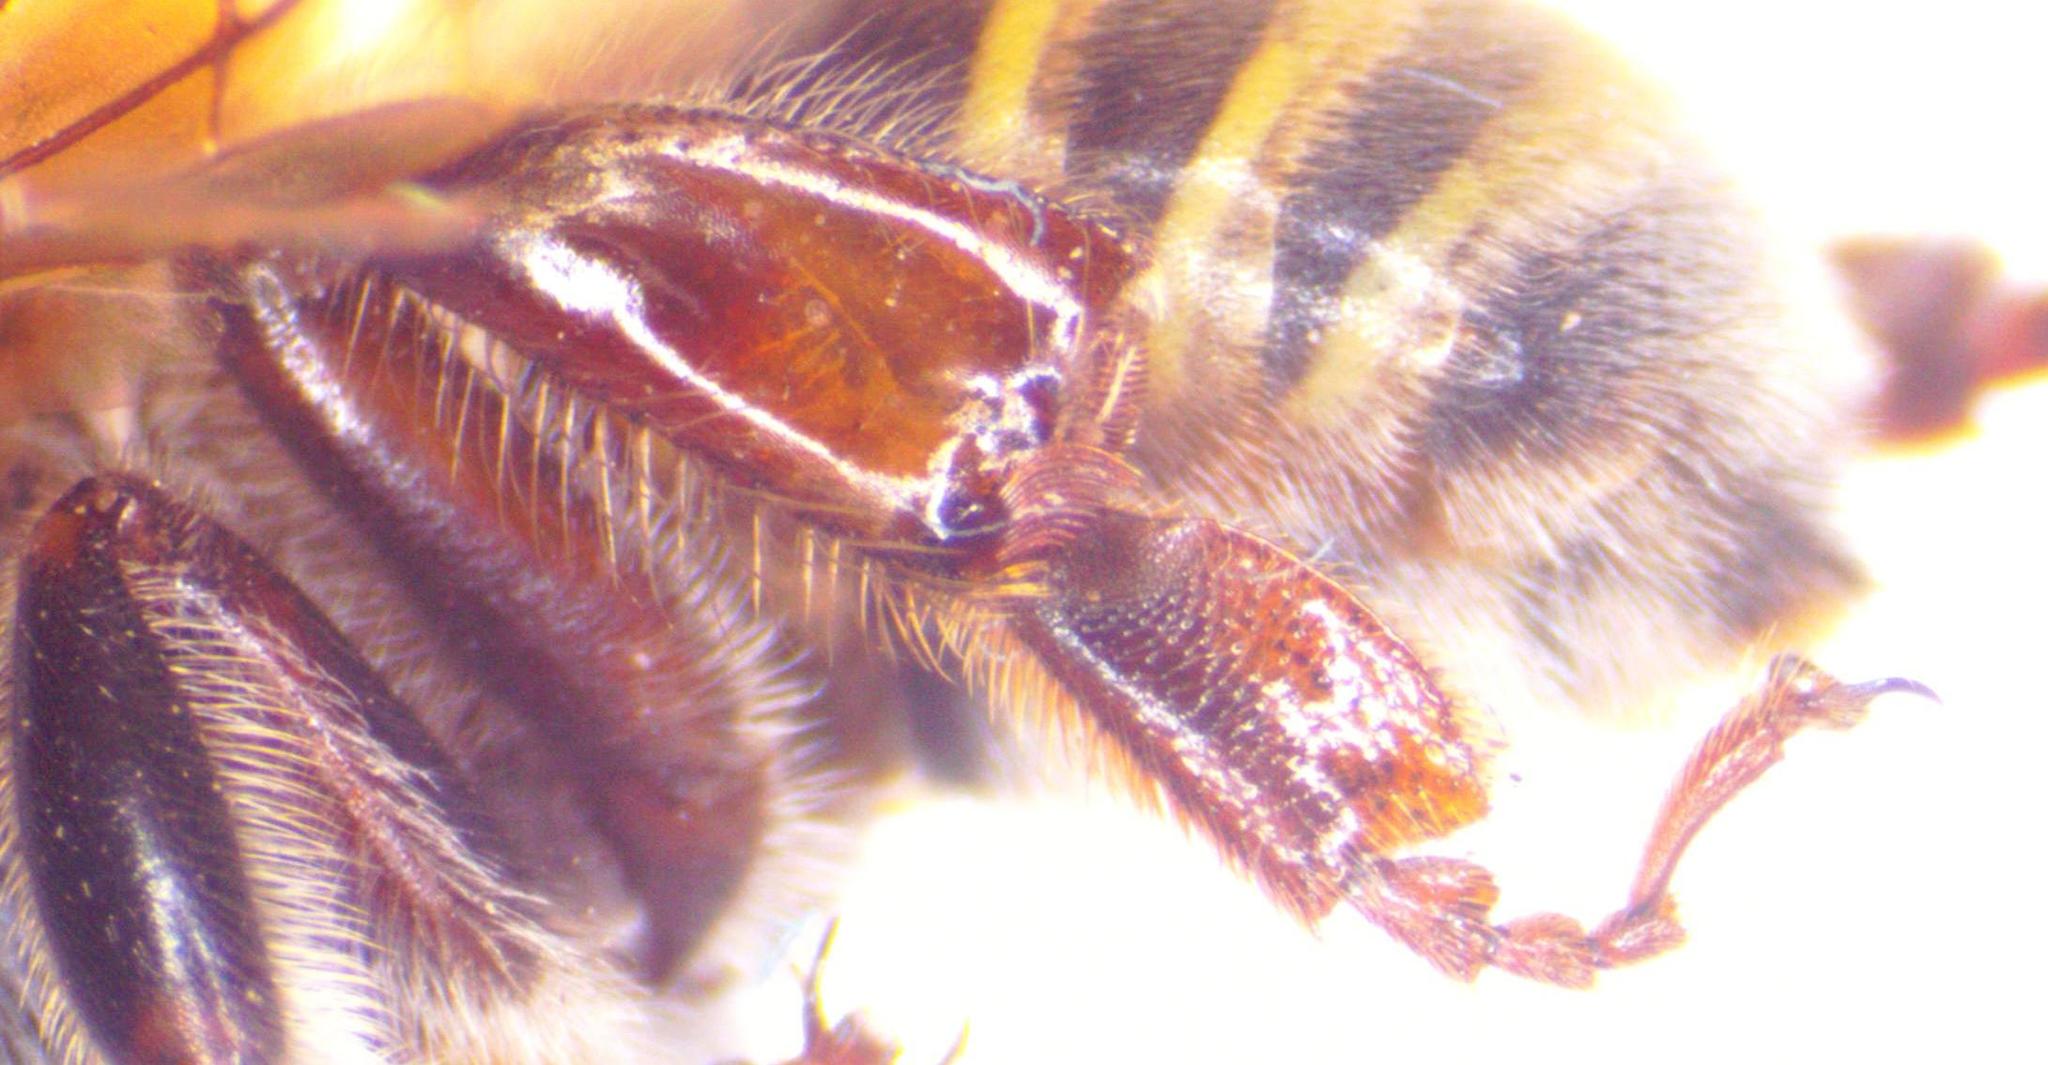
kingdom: Animalia
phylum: Arthropoda
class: Insecta
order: Hymenoptera
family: Apidae
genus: Melipona
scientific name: Melipona beecheii
